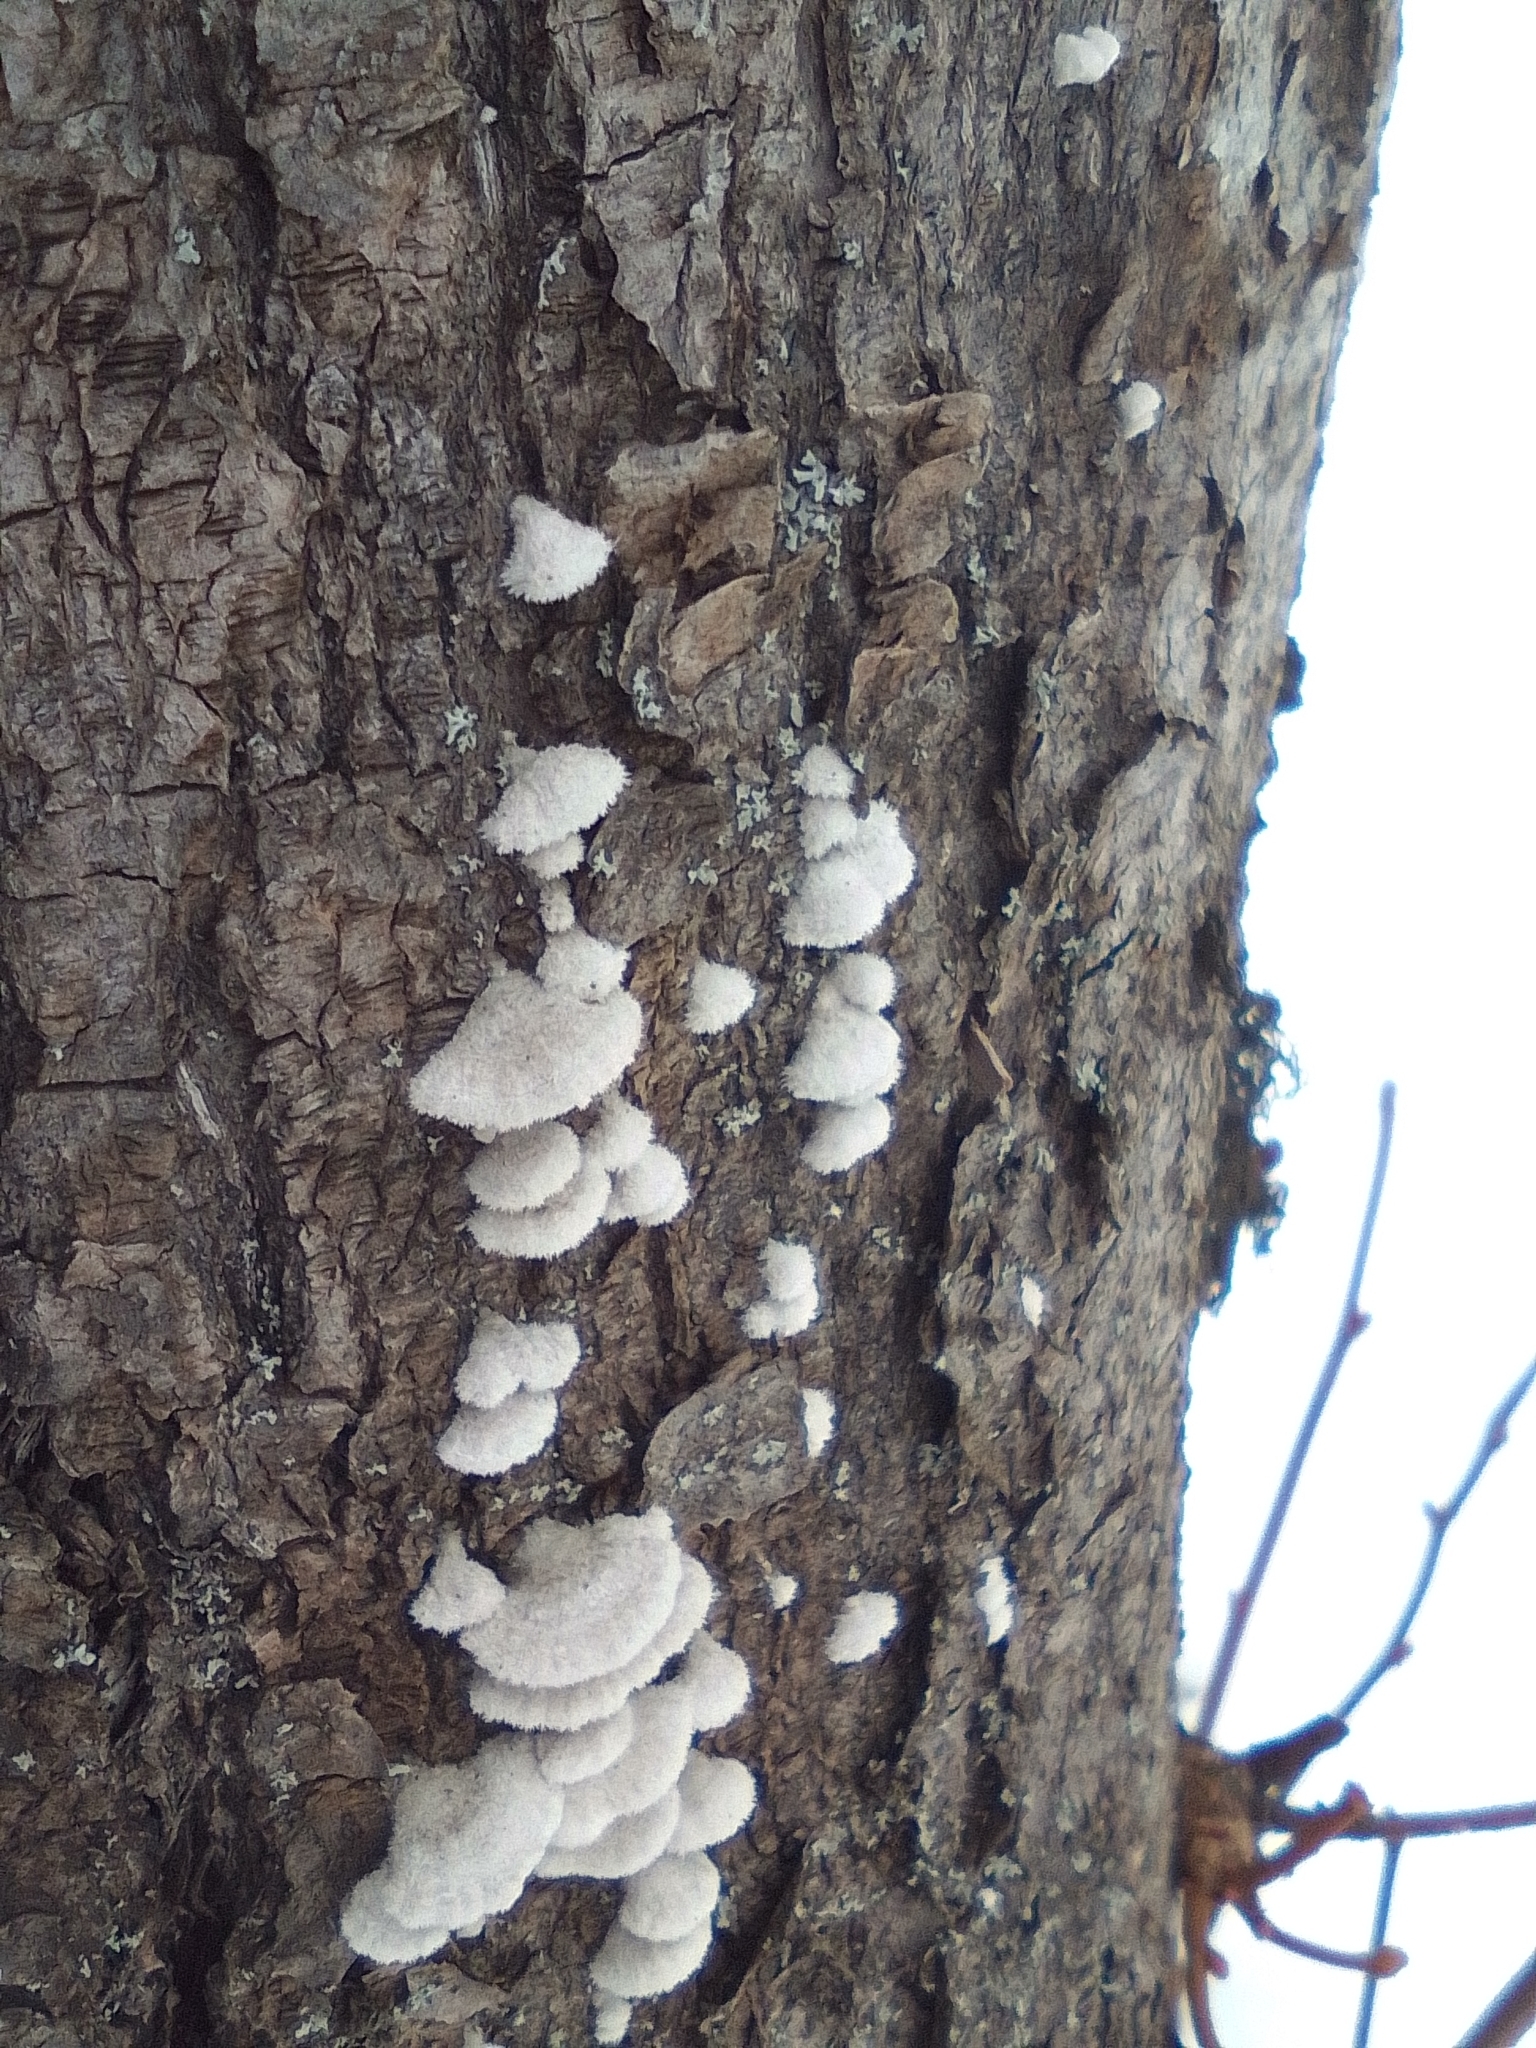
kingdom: Fungi
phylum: Basidiomycota
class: Agaricomycetes
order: Agaricales
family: Schizophyllaceae
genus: Schizophyllum
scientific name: Schizophyllum commune
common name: Common porecrust
